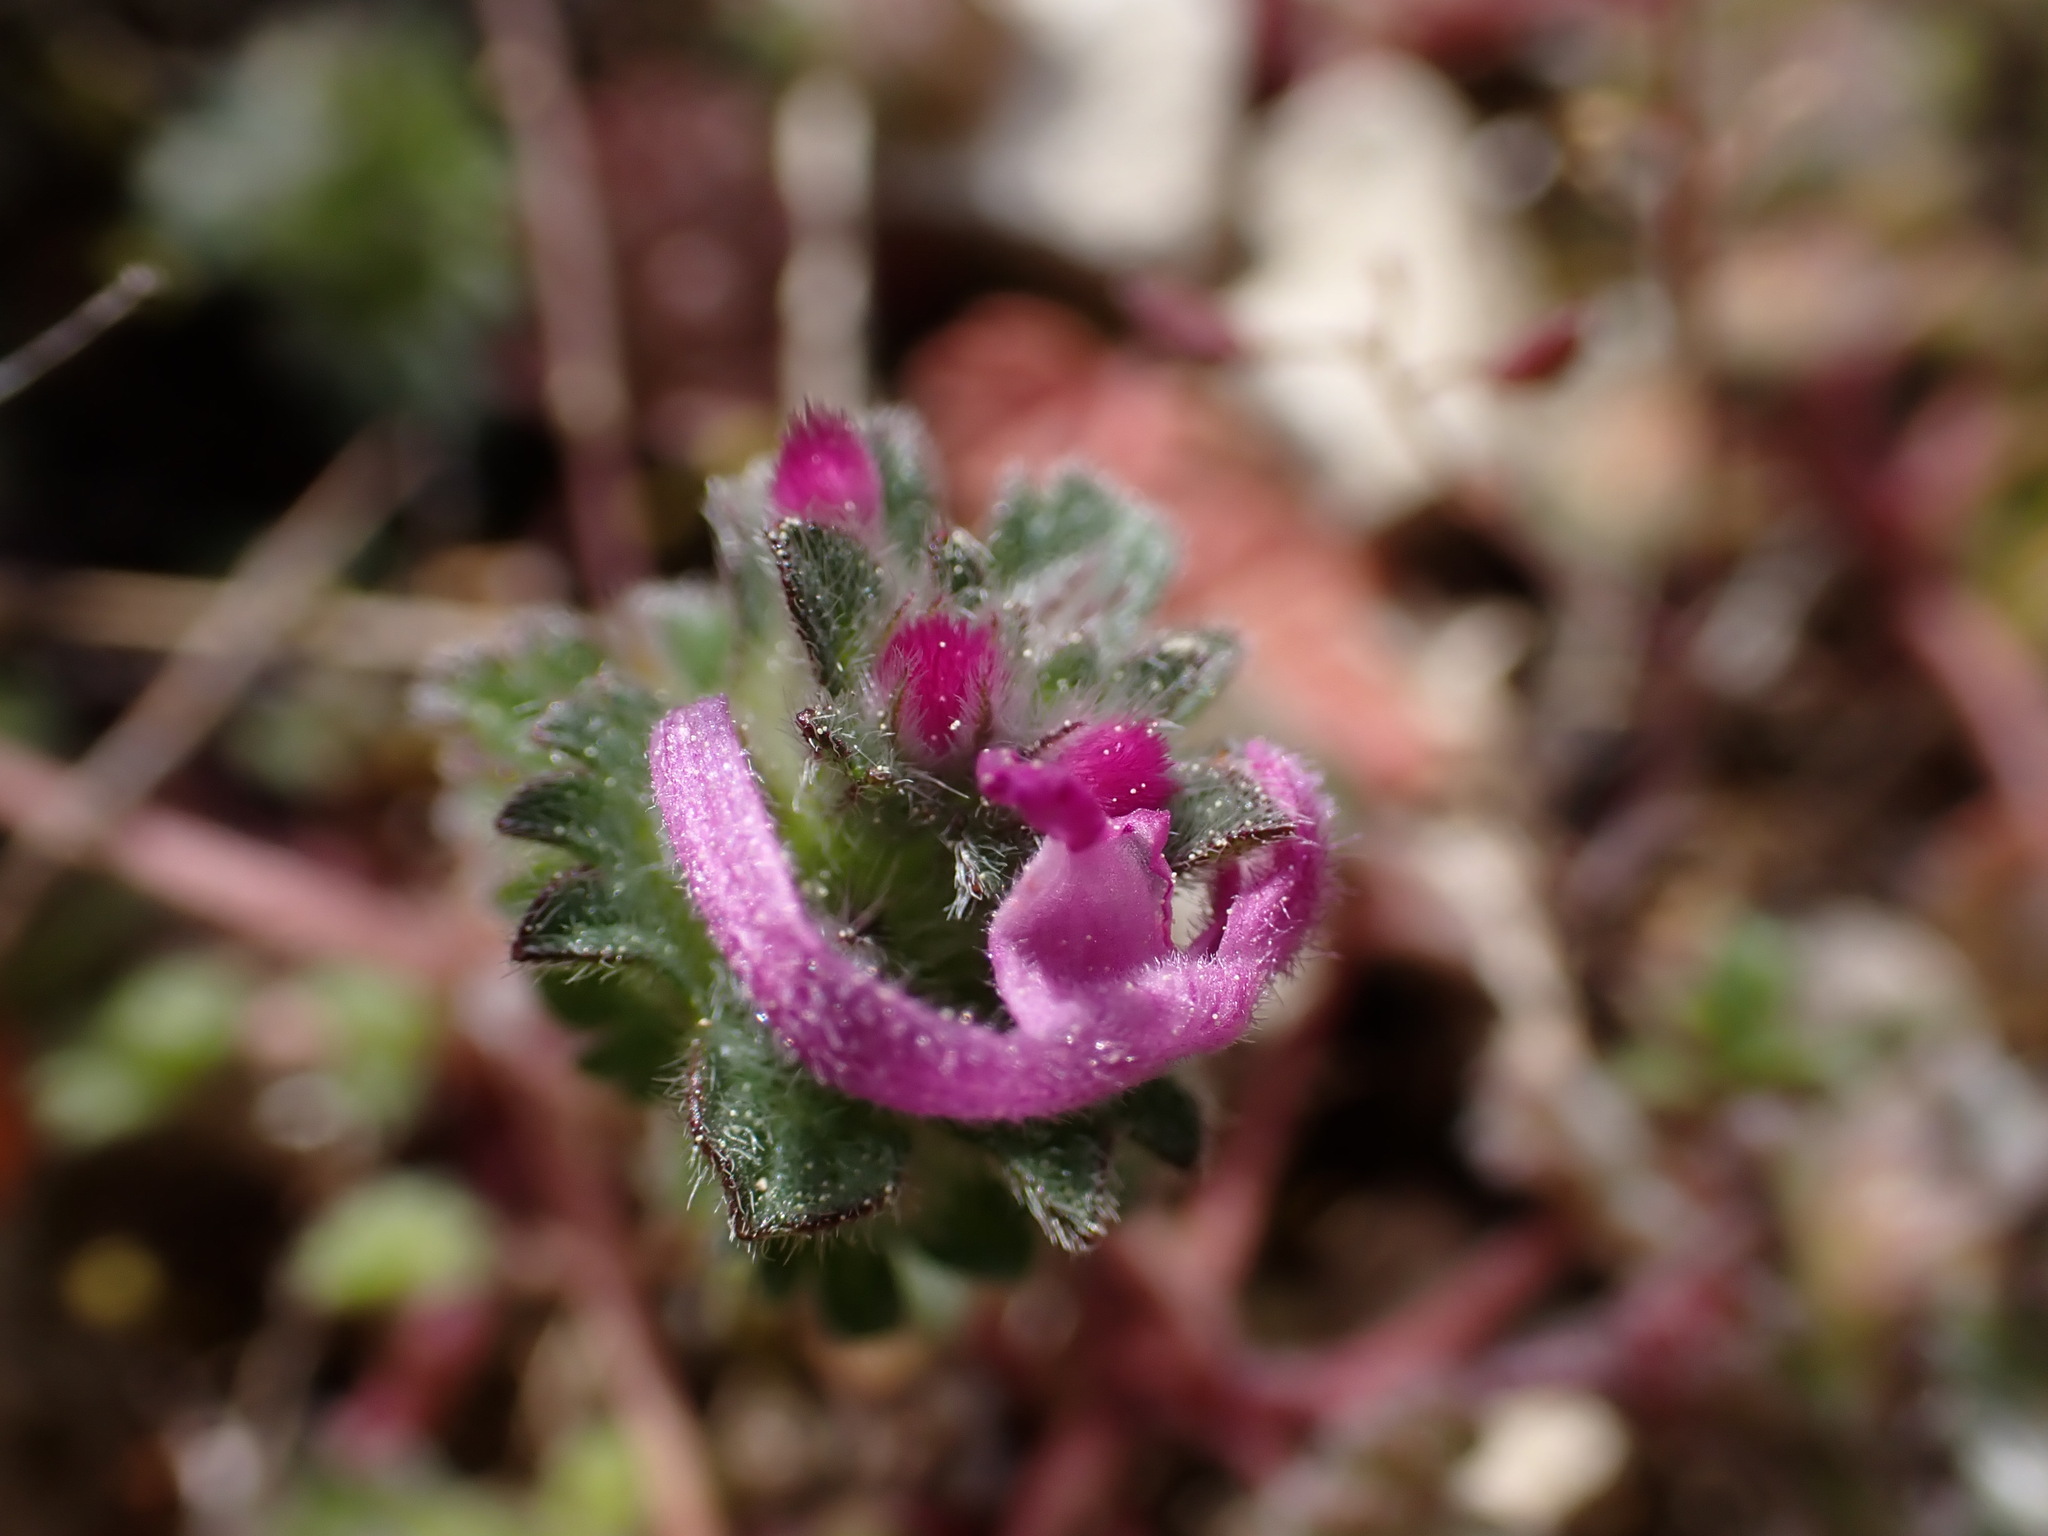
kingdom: Plantae
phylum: Tracheophyta
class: Magnoliopsida
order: Lamiales
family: Lamiaceae
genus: Lamium
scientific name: Lamium amplexicaule
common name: Henbit dead-nettle
